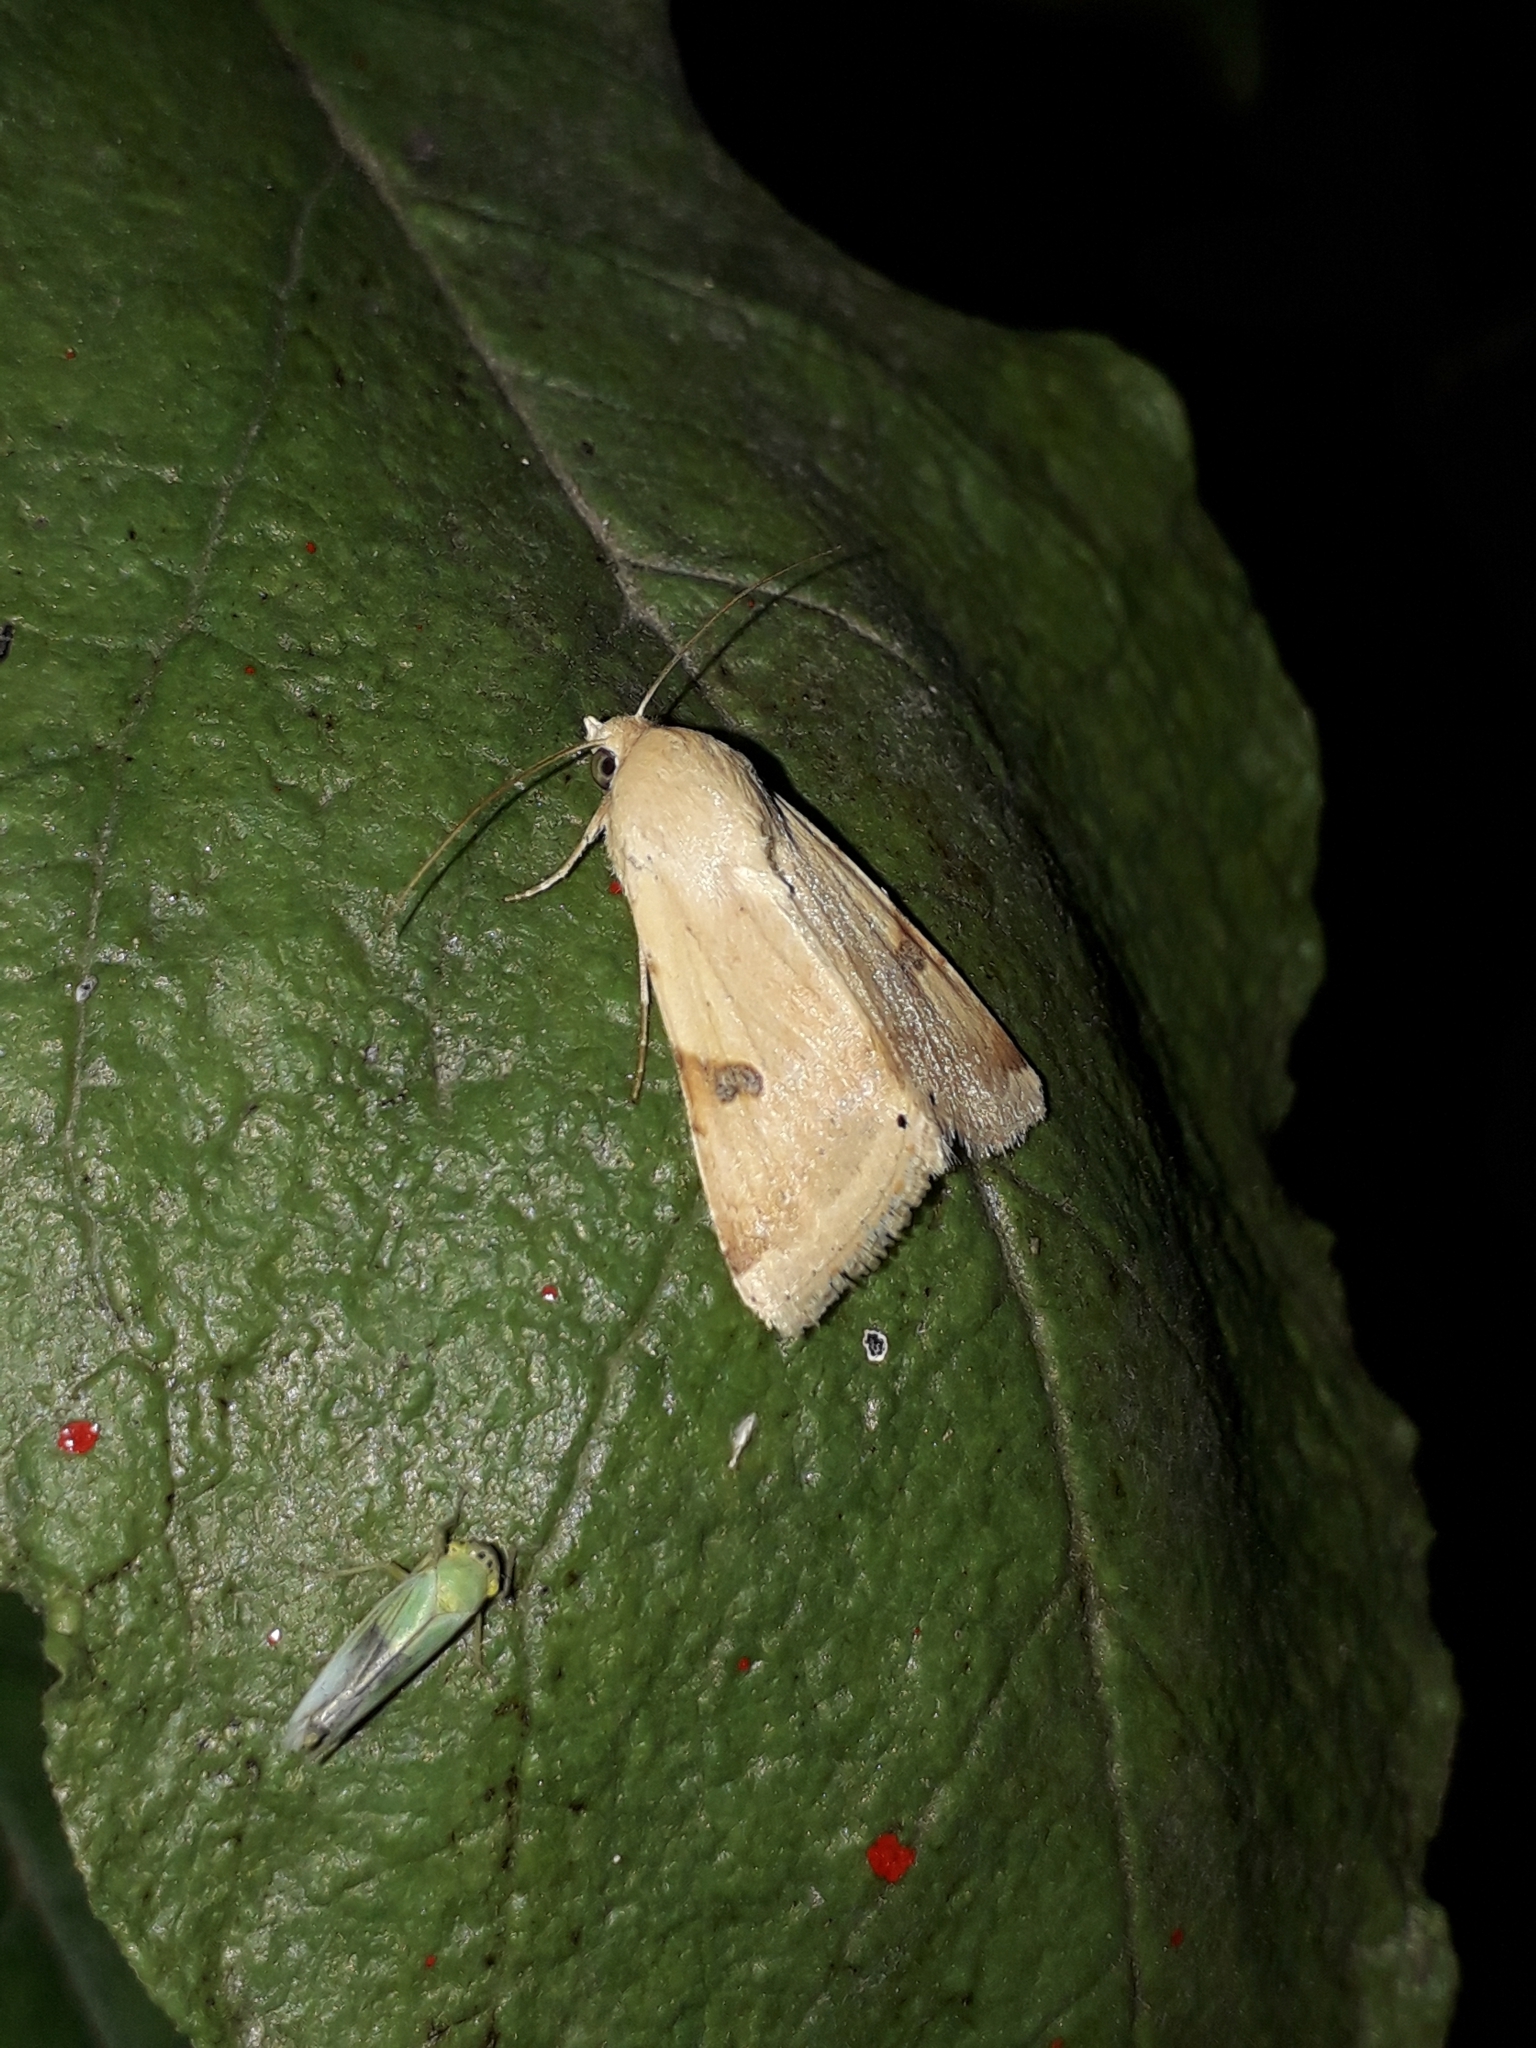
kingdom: Animalia
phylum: Arthropoda
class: Insecta
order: Lepidoptera
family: Noctuidae
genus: Heliothis
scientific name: Heliothis peltigera
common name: Bordered straw
